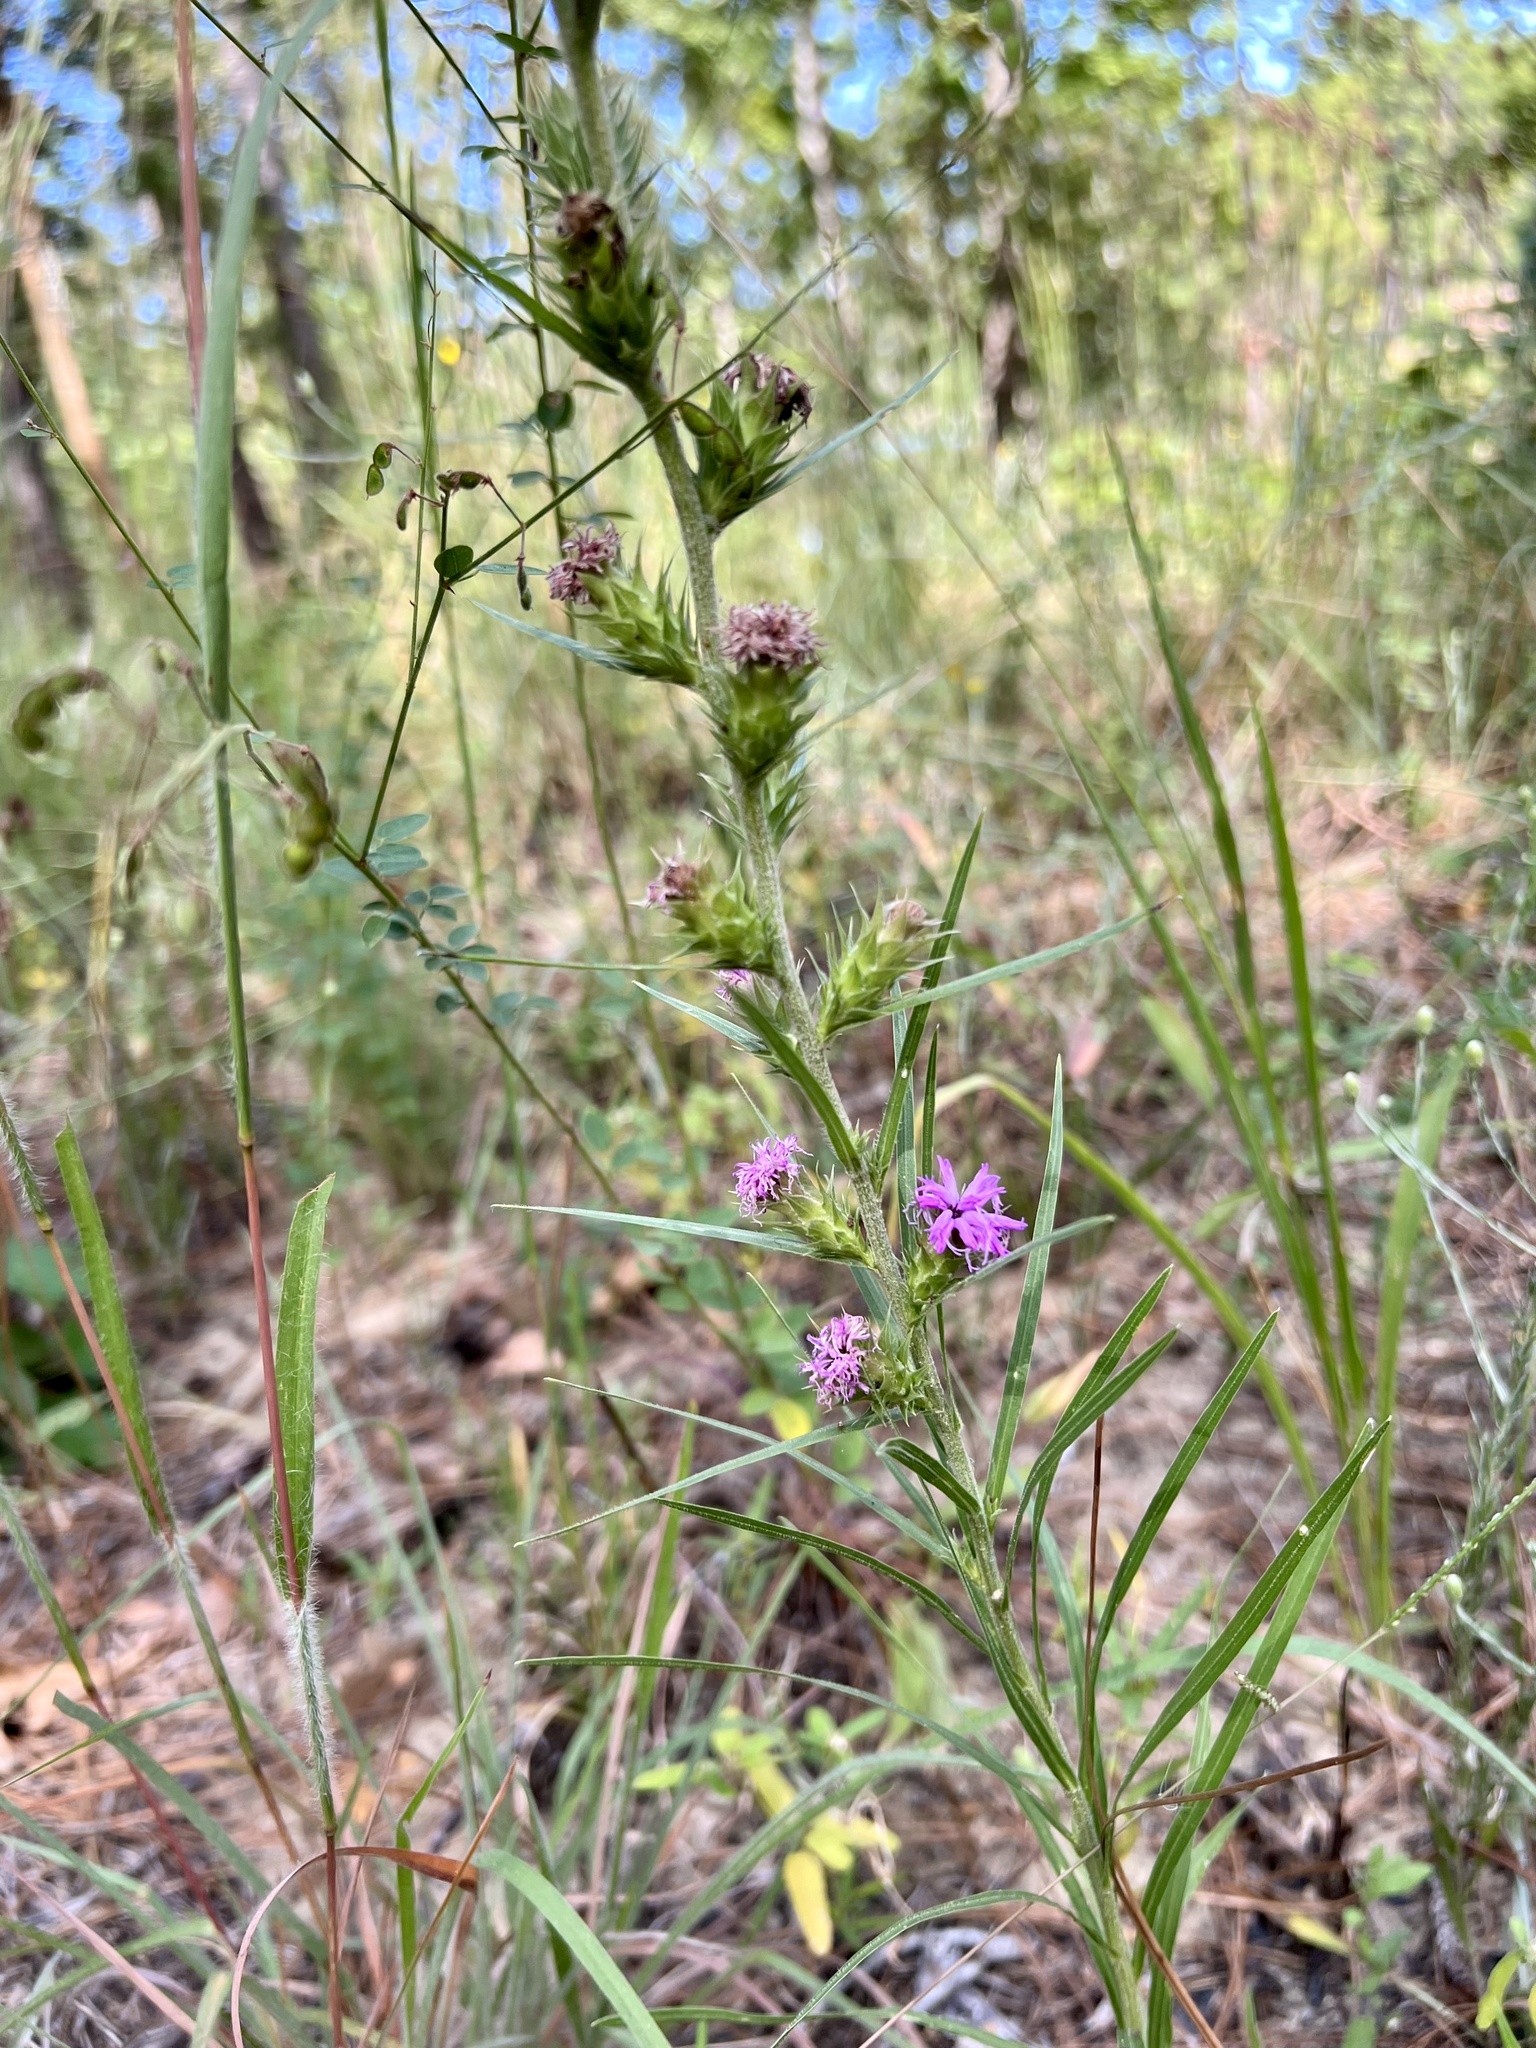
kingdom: Plantae
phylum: Tracheophyta
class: Magnoliopsida
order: Asterales
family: Asteraceae
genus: Liatris
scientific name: Liatris squarrosa
